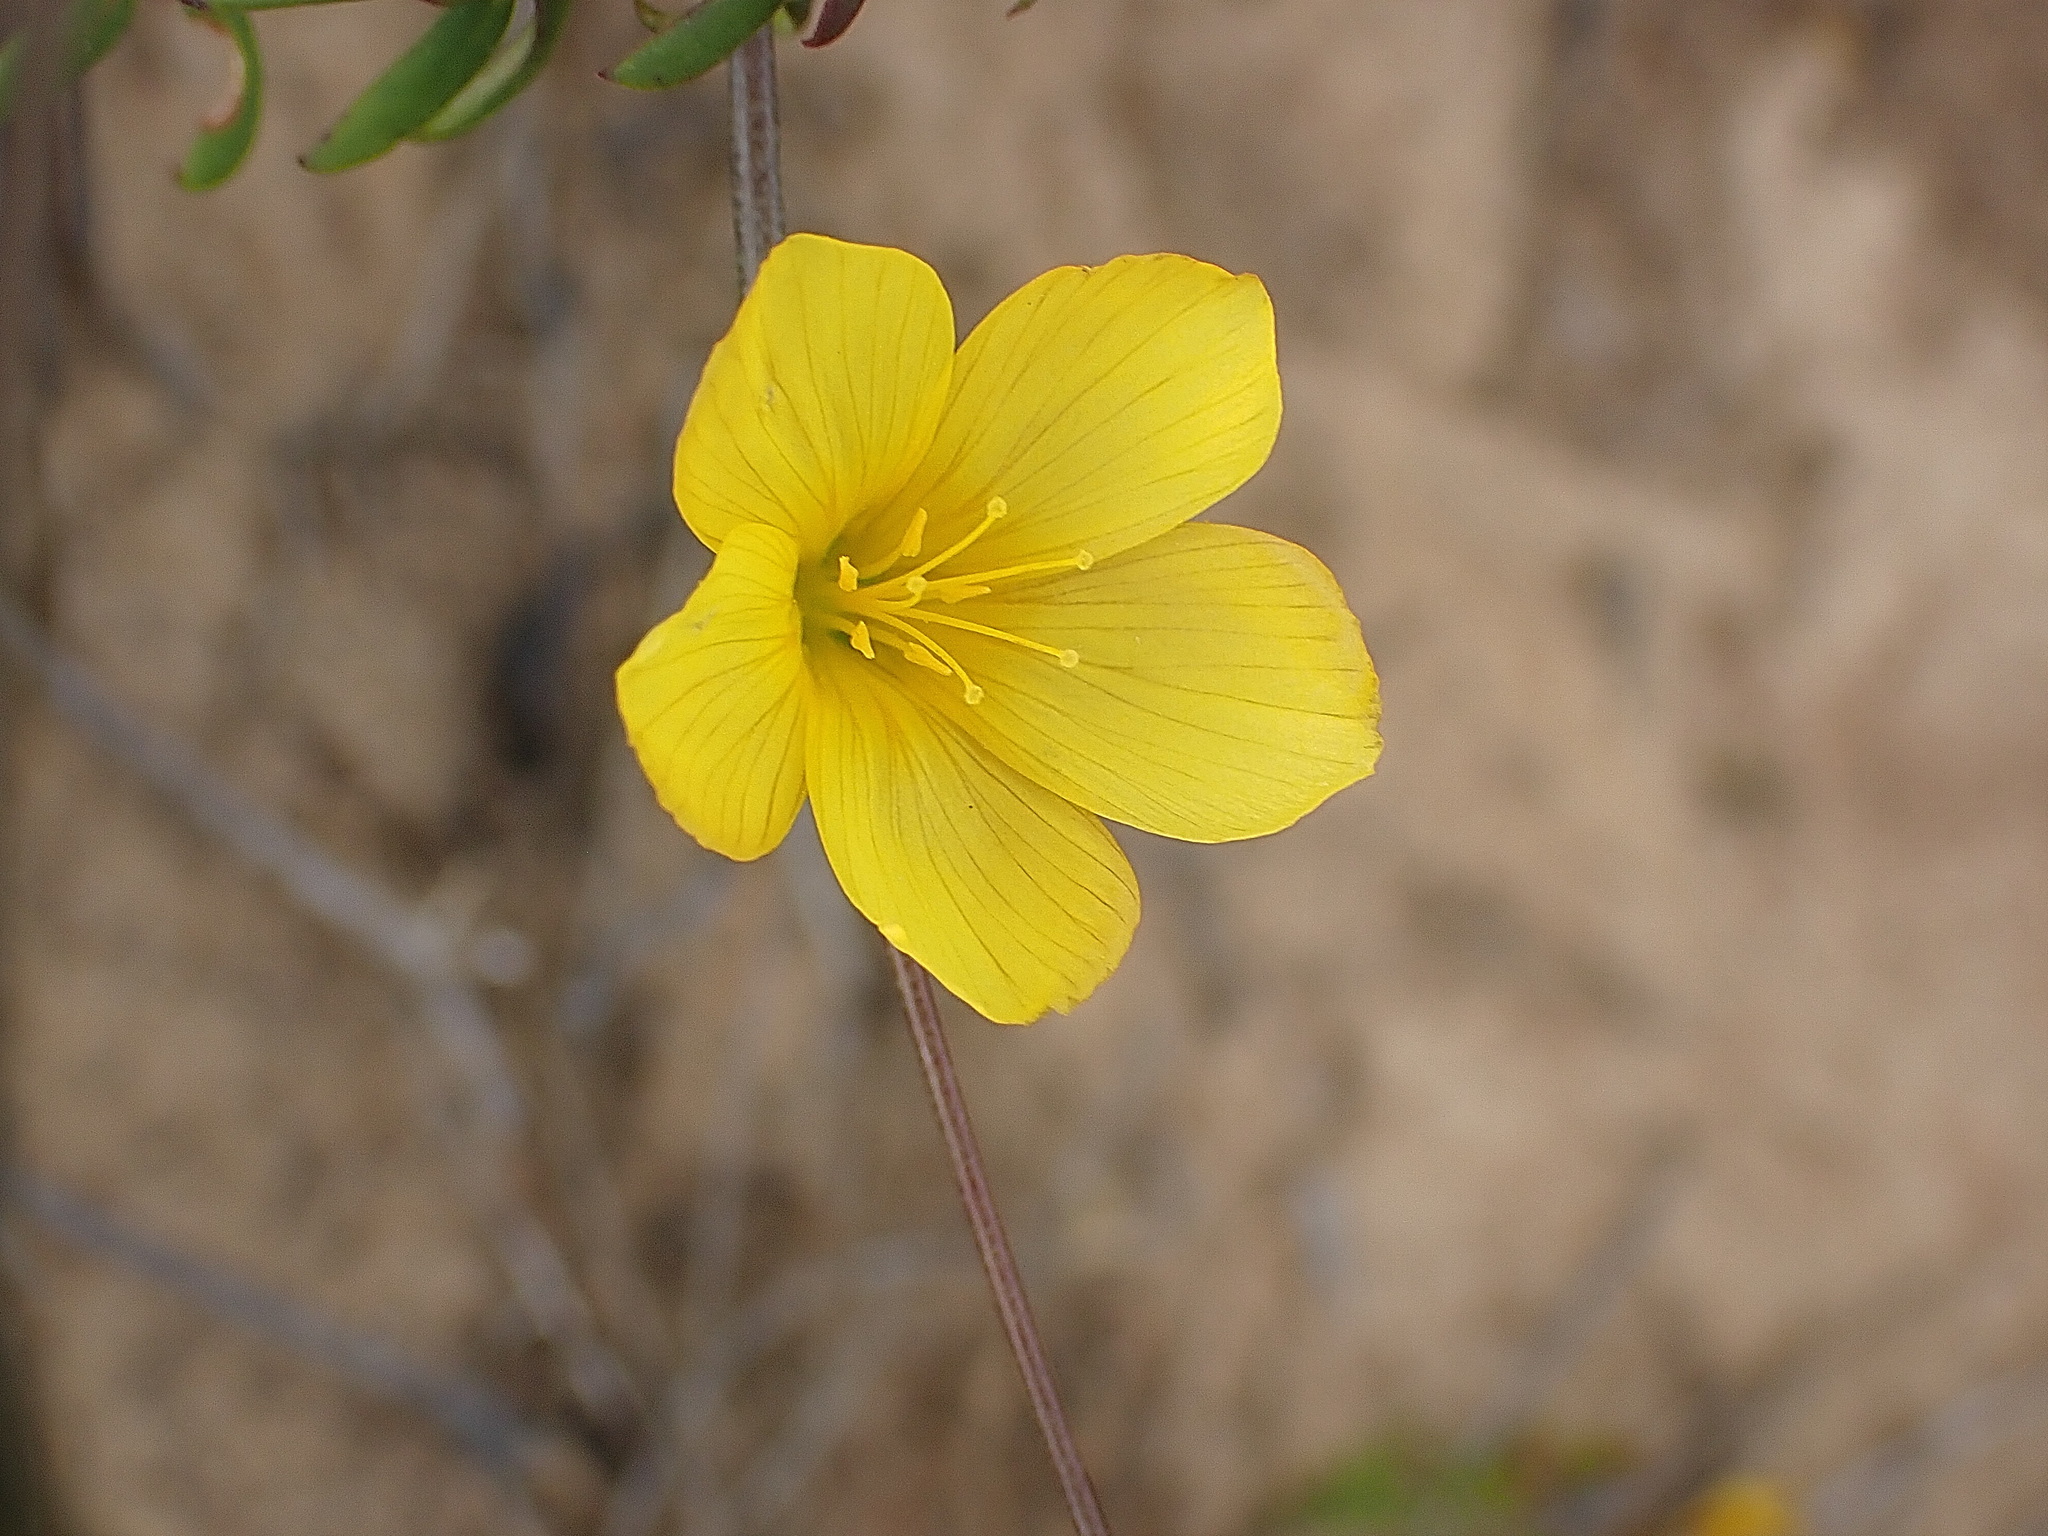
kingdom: Plantae
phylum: Tracheophyta
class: Magnoliopsida
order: Malpighiales
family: Linaceae
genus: Linum
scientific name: Linum africanum
